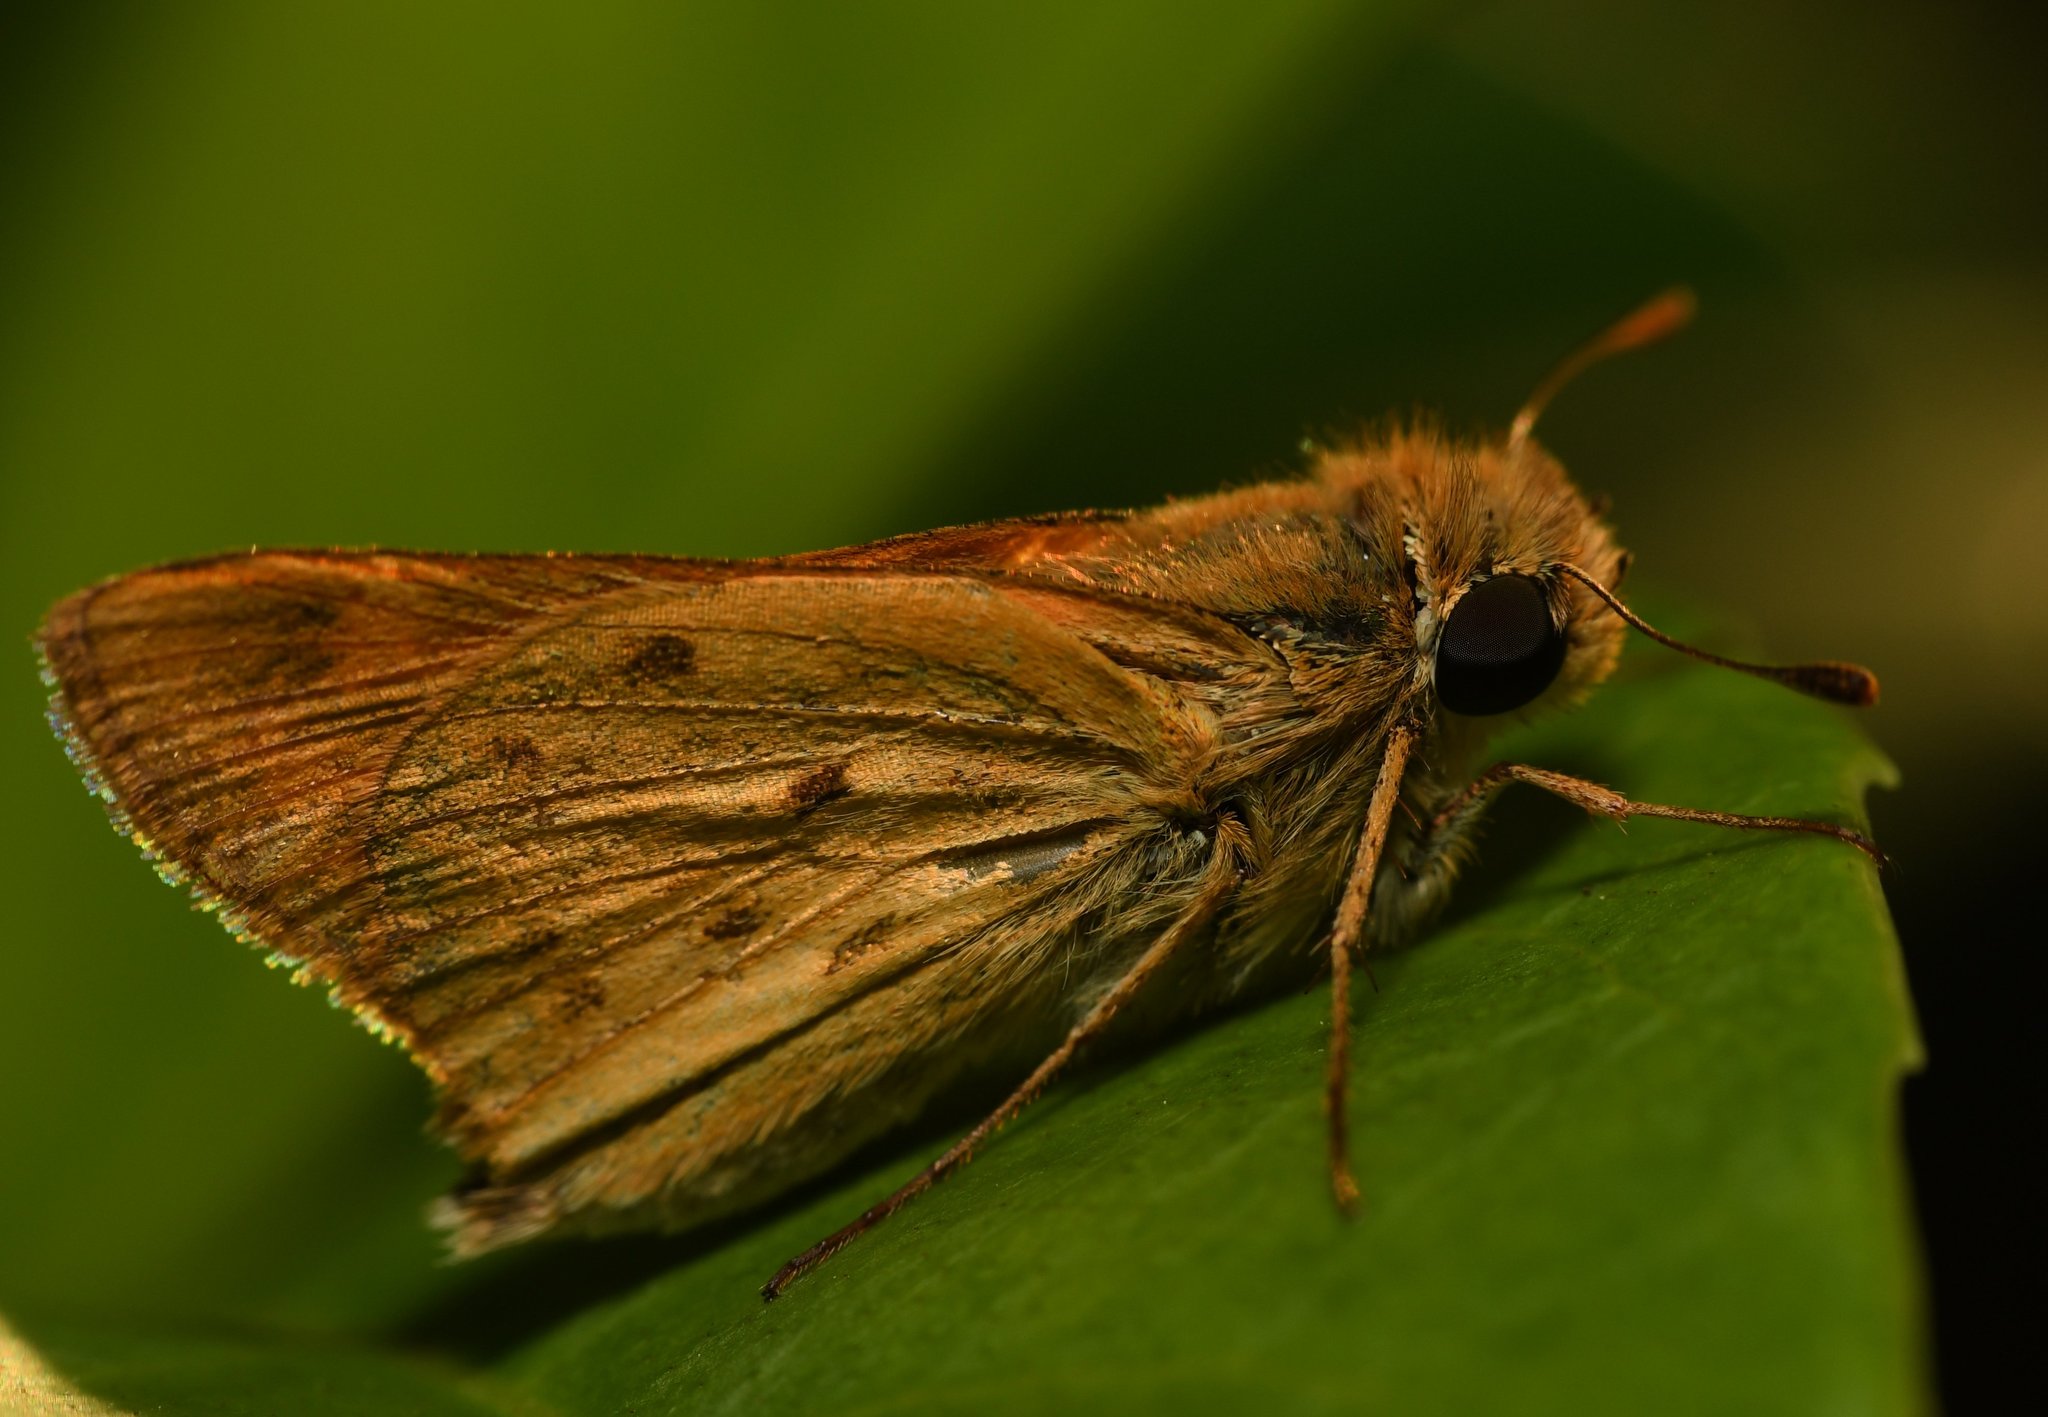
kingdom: Animalia
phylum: Arthropoda
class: Insecta
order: Lepidoptera
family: Hesperiidae
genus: Hylephila
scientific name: Hylephila phyleus
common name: Fiery skipper
